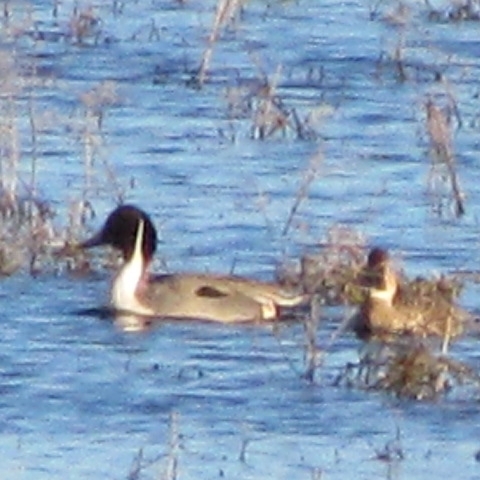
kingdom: Animalia
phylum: Chordata
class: Aves
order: Anseriformes
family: Anatidae
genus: Anas
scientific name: Anas acuta
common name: Northern pintail
